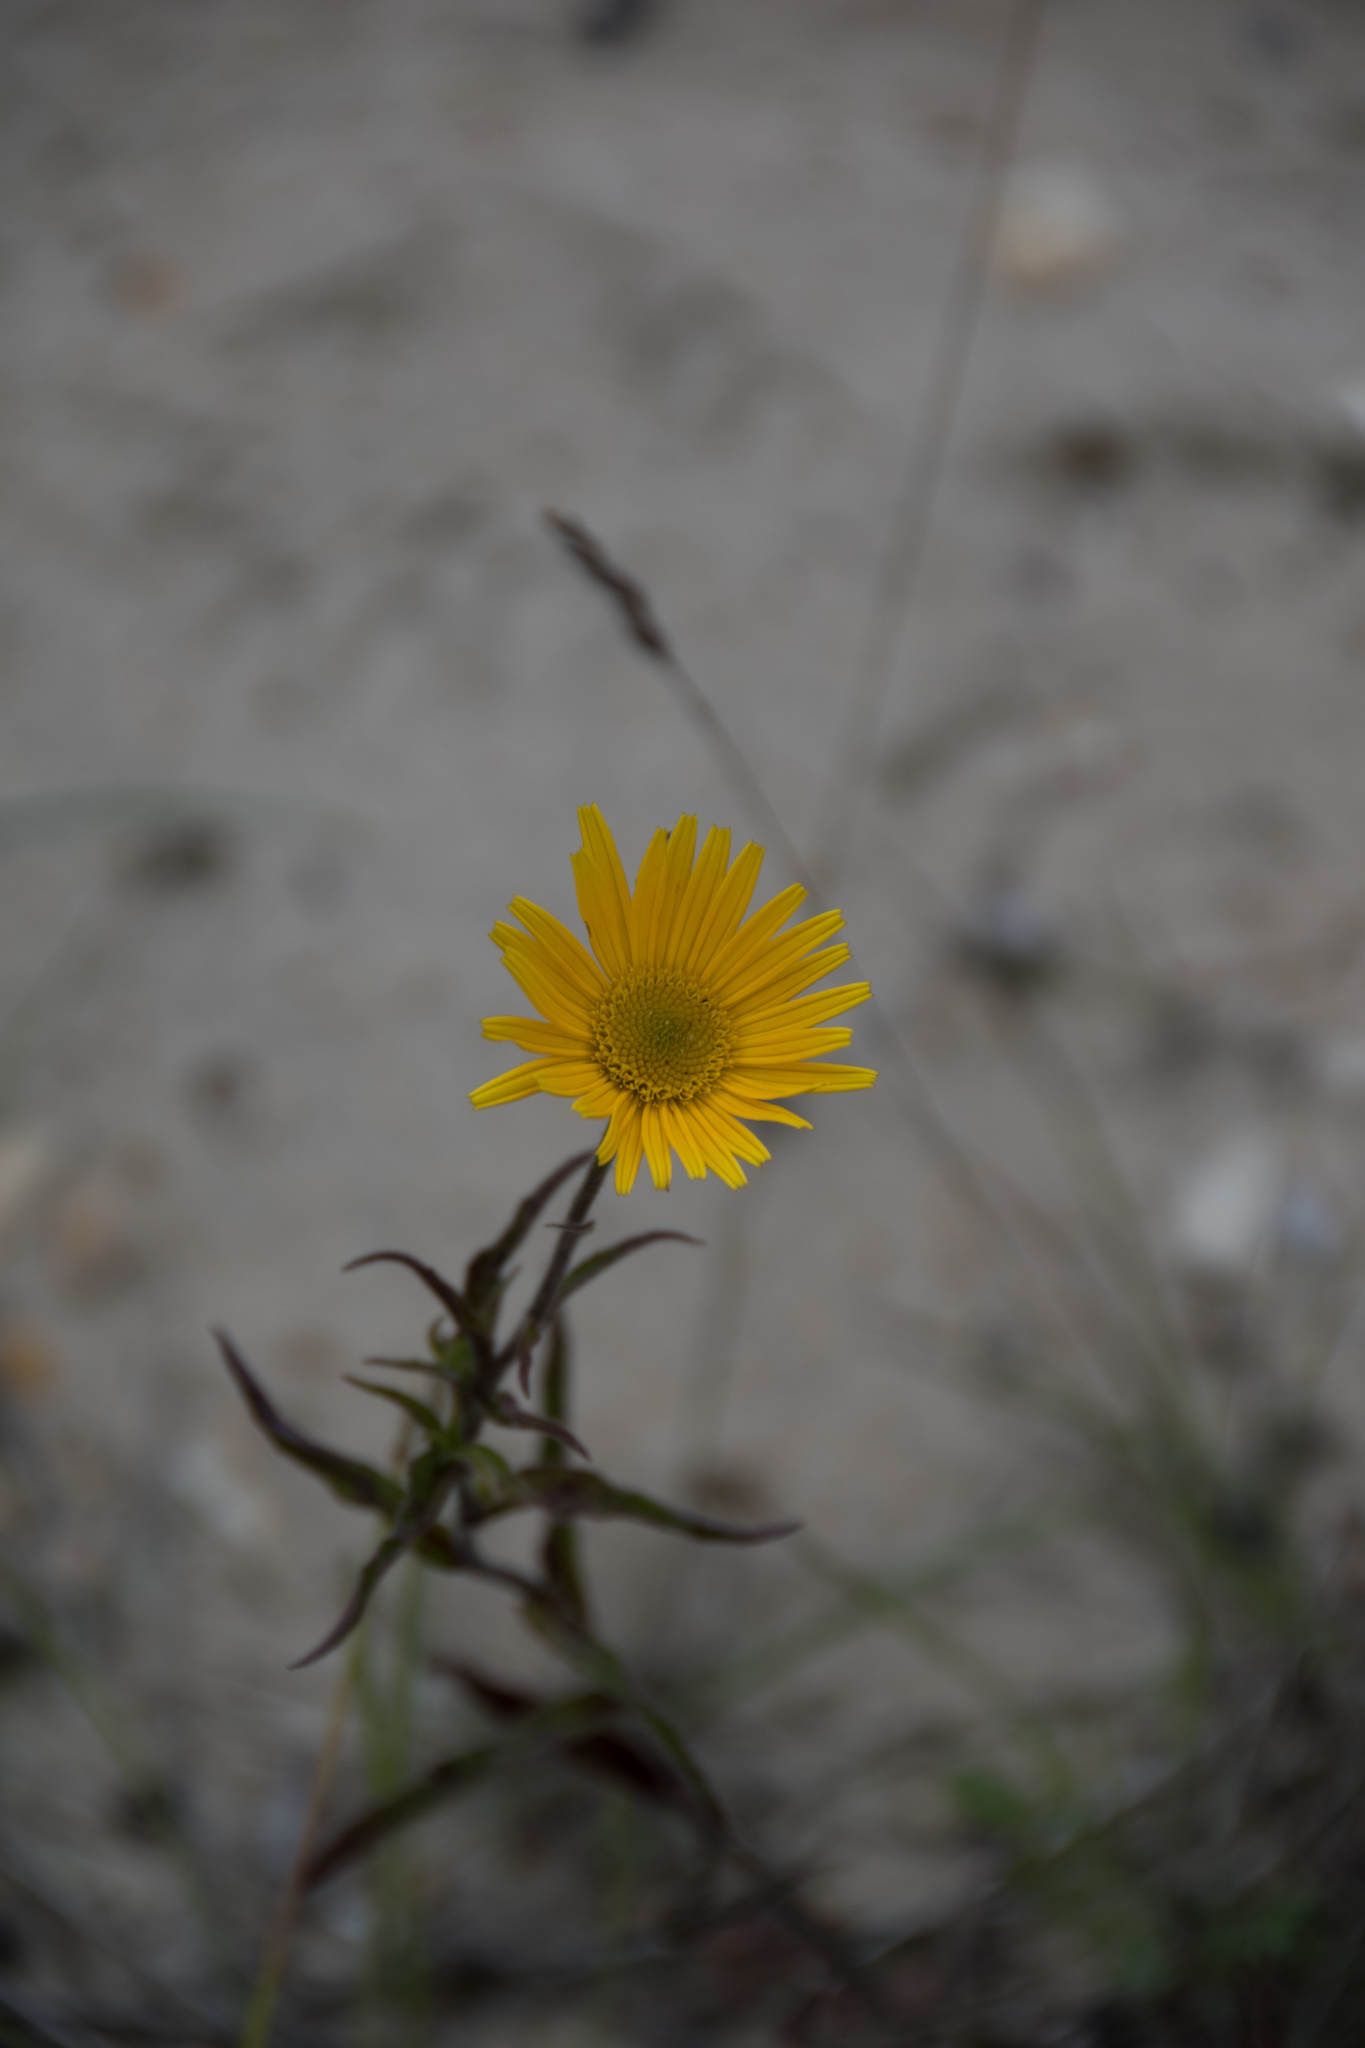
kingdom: Plantae
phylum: Tracheophyta
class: Magnoliopsida
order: Asterales
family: Asteraceae
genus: Buphthalmum
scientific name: Buphthalmum salicifolium
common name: Willow-leaved yellow-oxeye
